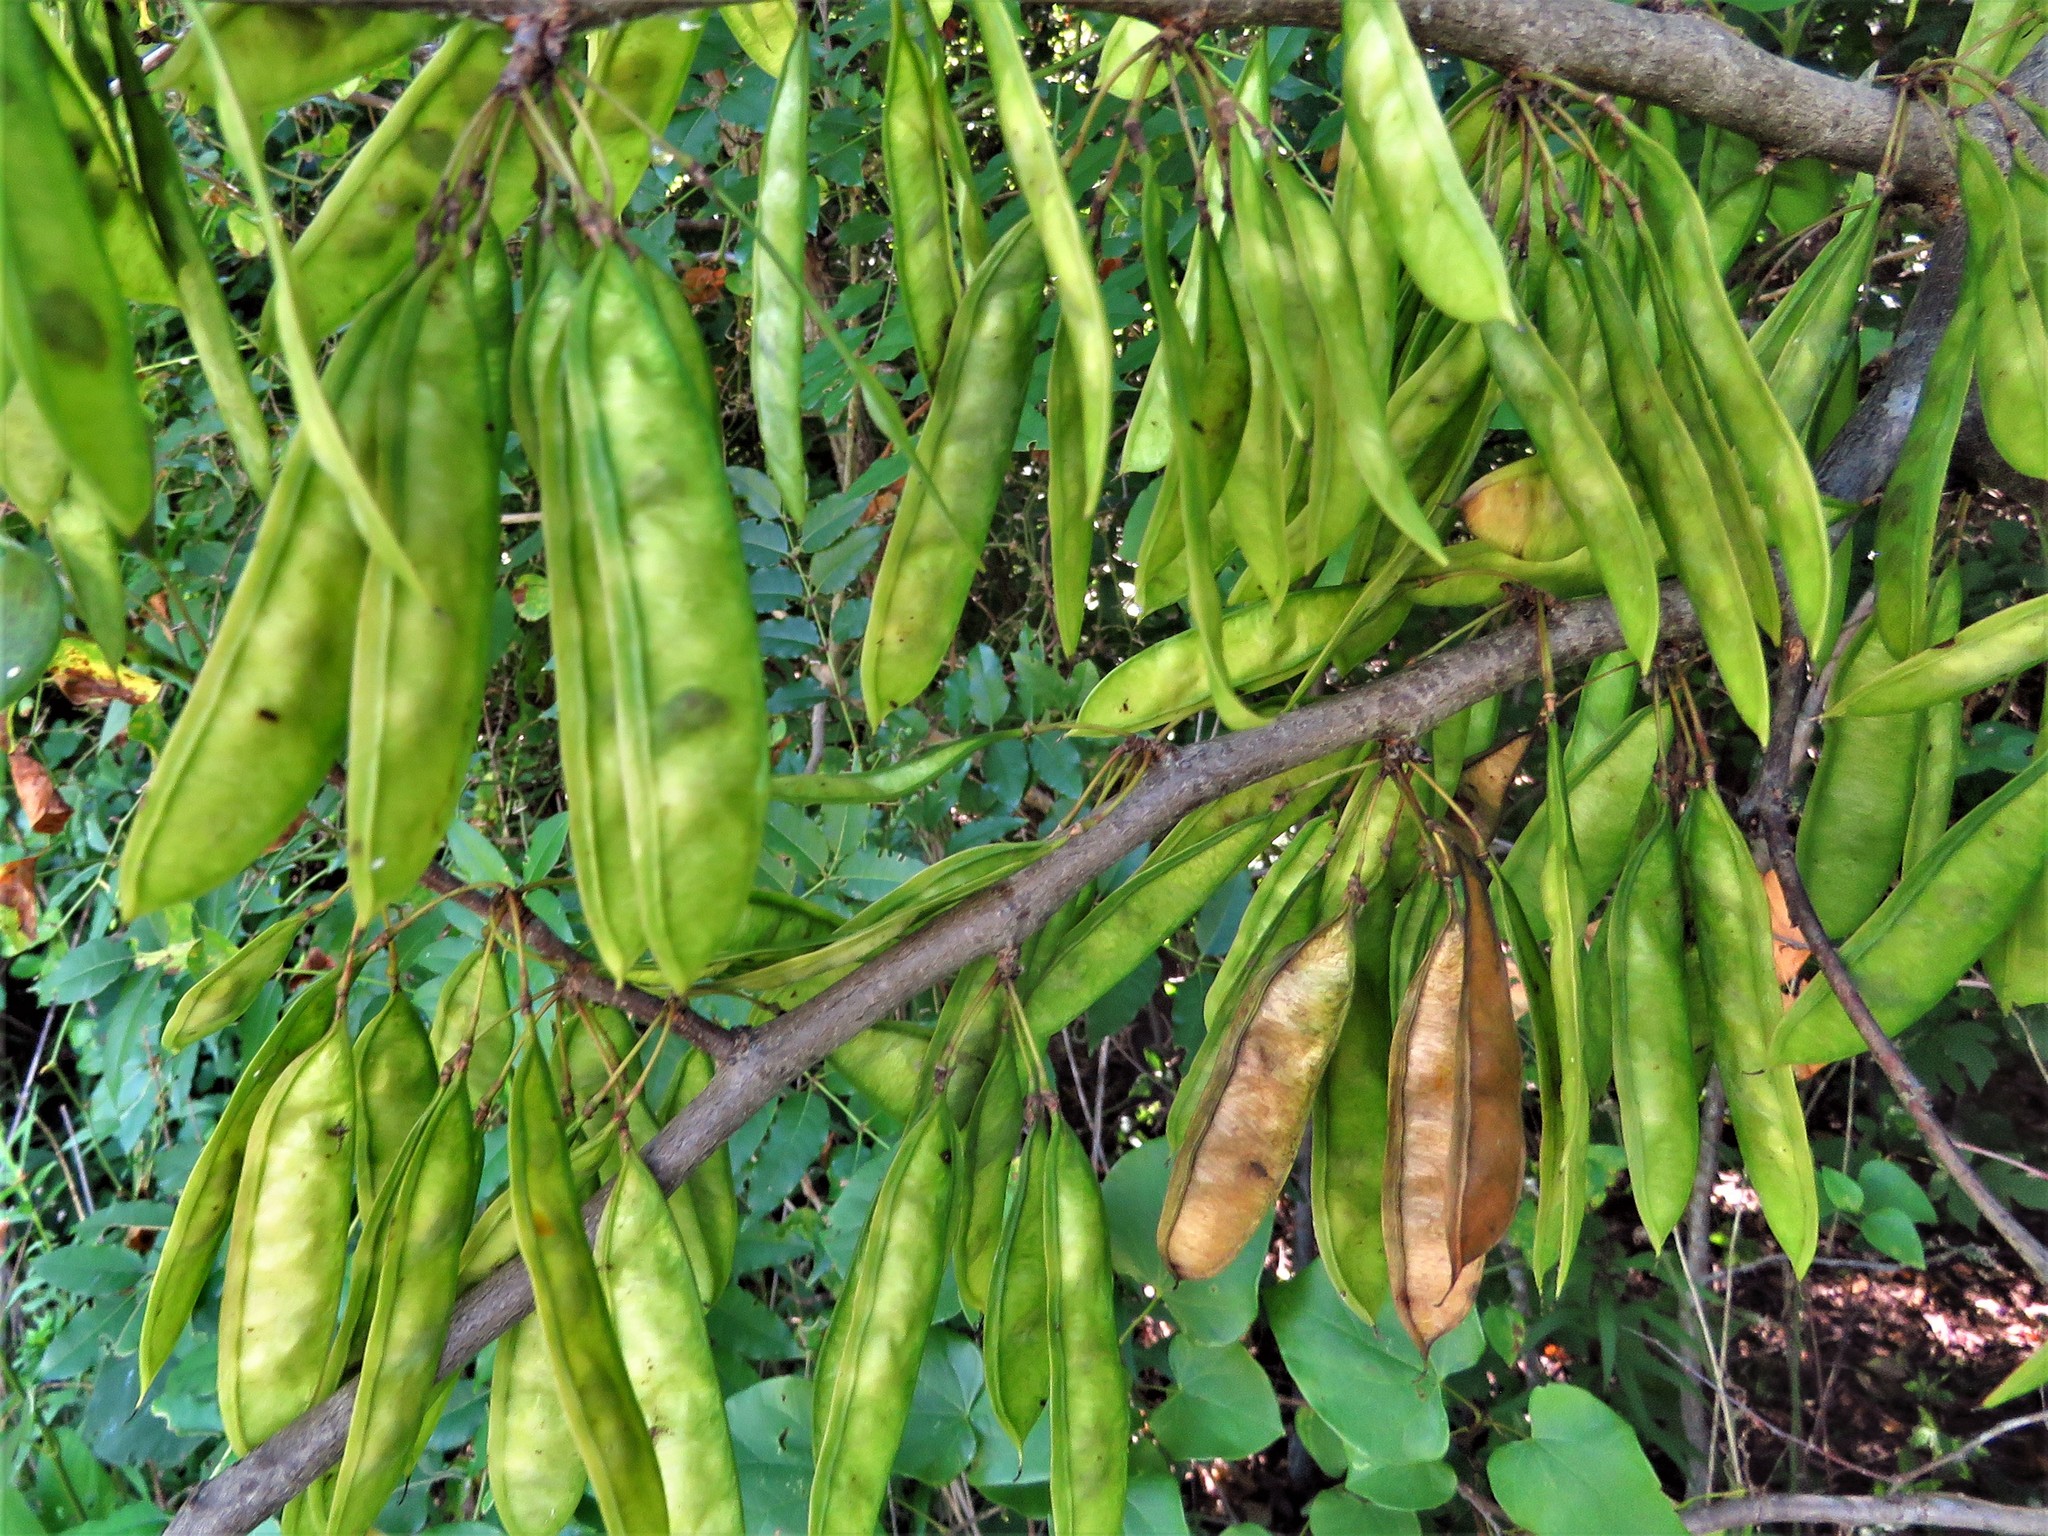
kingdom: Plantae
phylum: Tracheophyta
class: Magnoliopsida
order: Fabales
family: Fabaceae
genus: Cercis
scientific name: Cercis canadensis
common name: Eastern redbud
